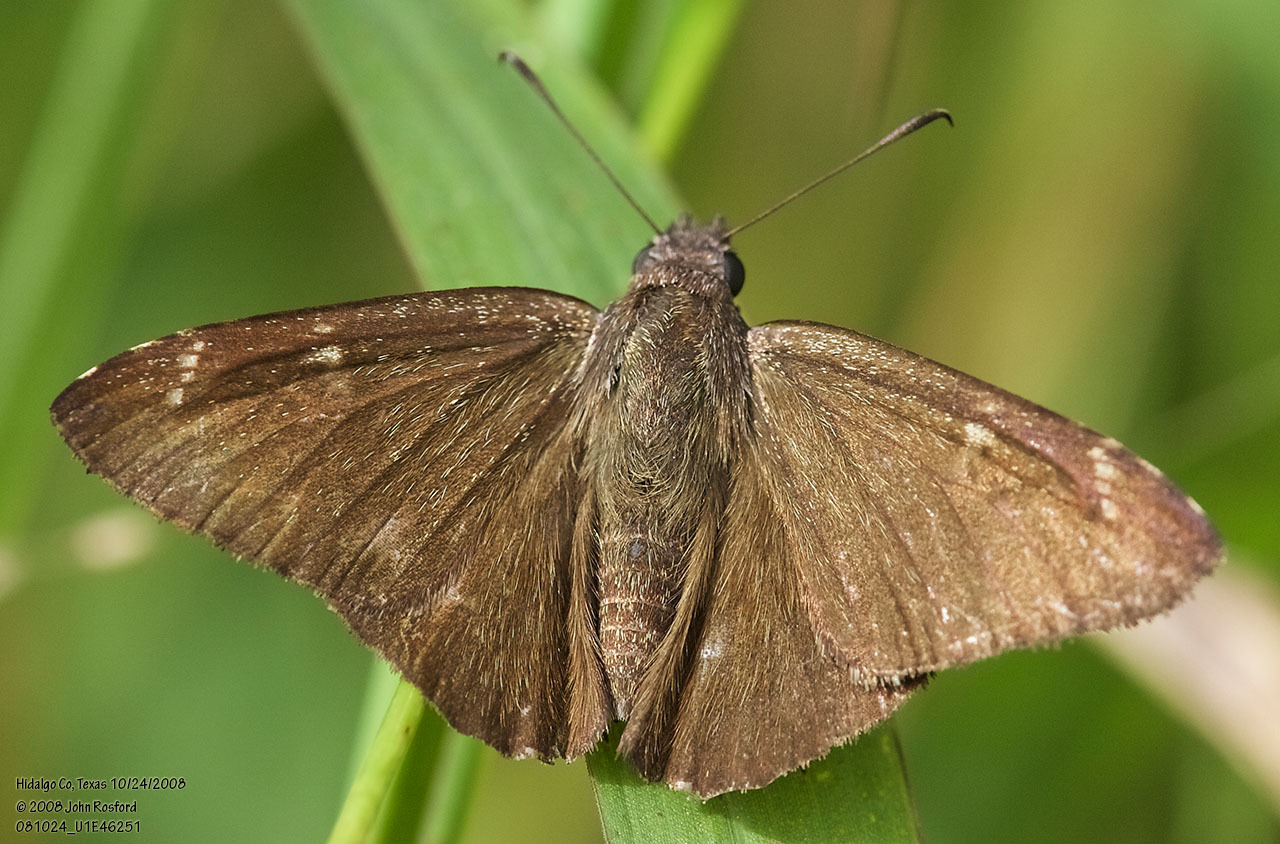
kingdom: Animalia
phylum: Arthropoda
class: Insecta
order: Lepidoptera
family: Hesperiidae
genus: Caicella
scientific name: Caicella calchas
